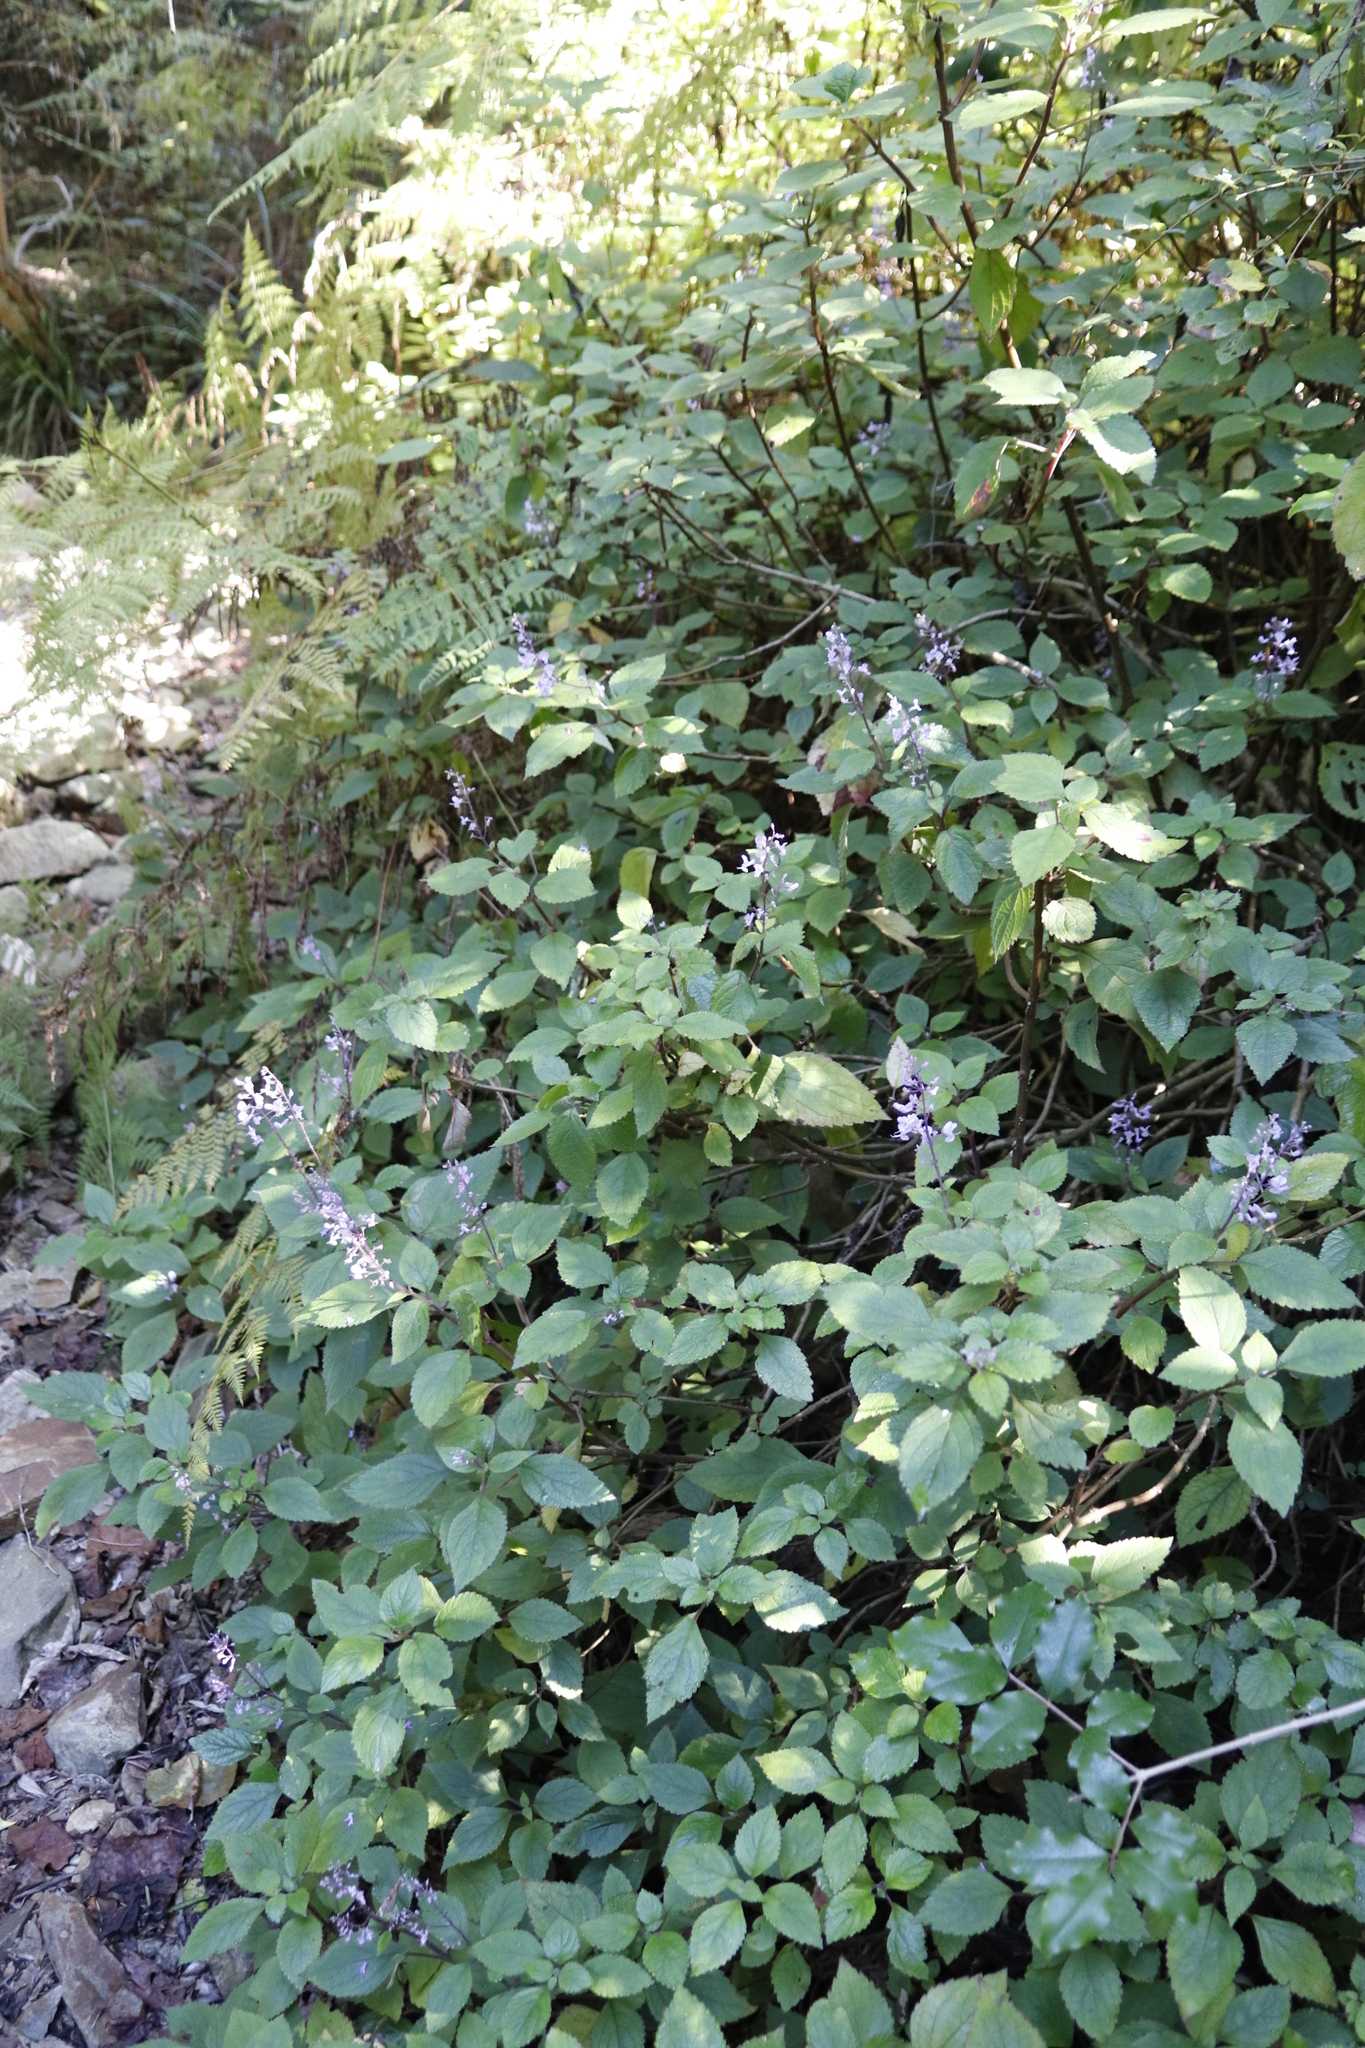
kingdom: Plantae
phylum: Tracheophyta
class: Magnoliopsida
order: Lamiales
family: Lamiaceae
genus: Plectranthus
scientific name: Plectranthus fruticosus
